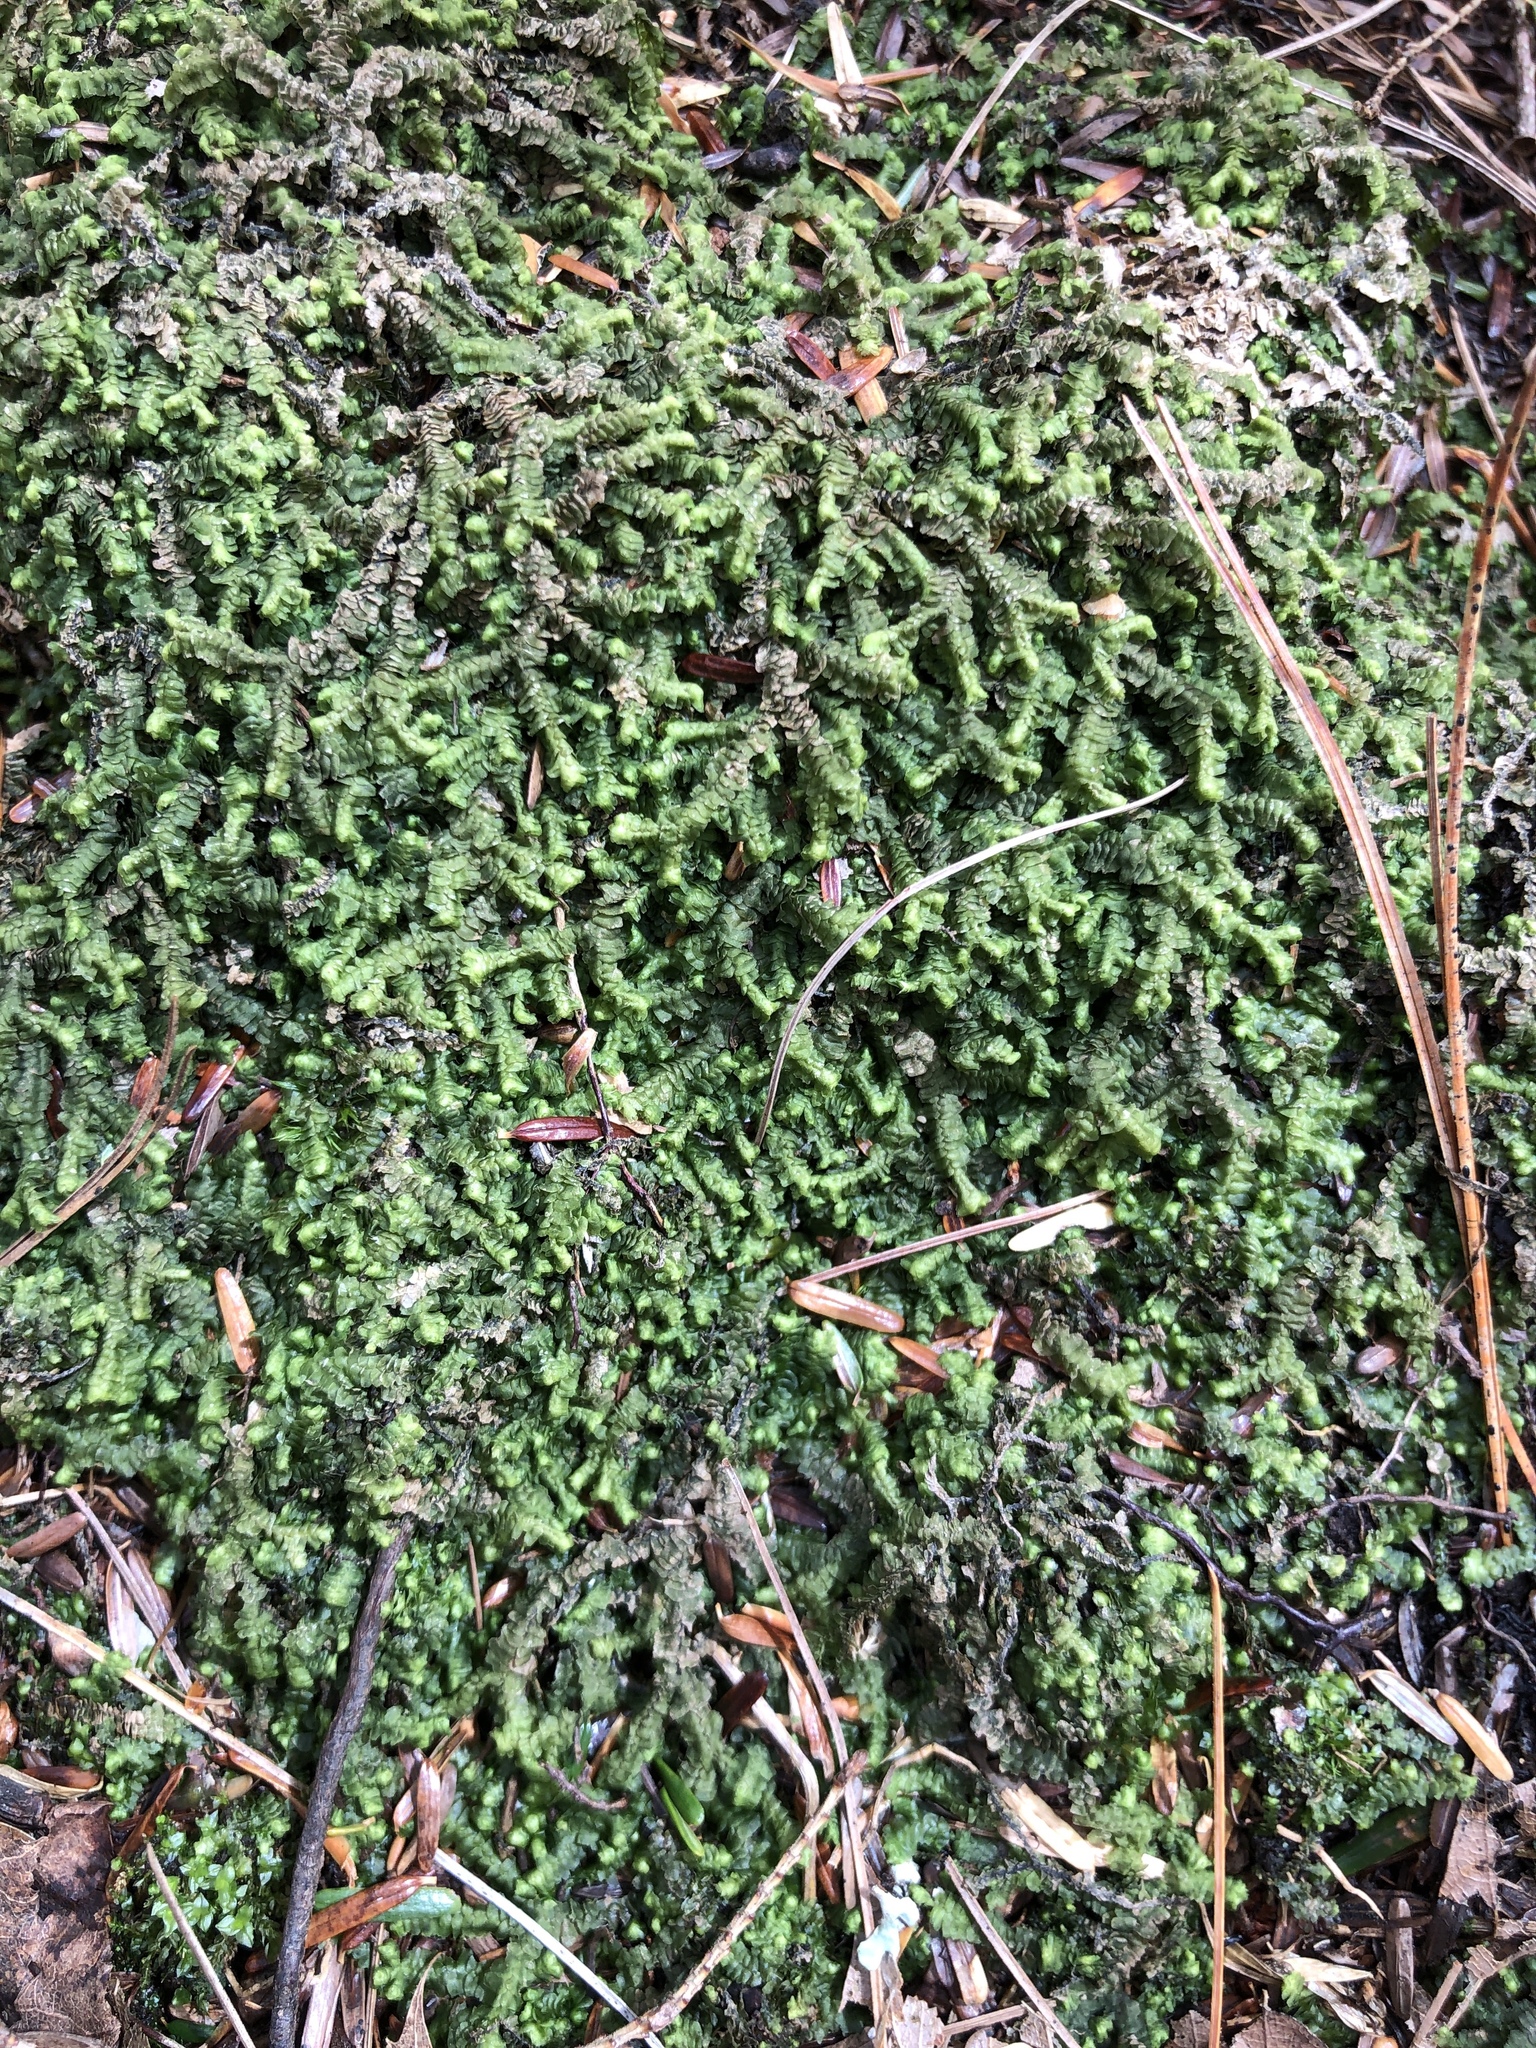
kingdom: Plantae
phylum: Marchantiophyta
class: Jungermanniopsida
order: Jungermanniales
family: Lepidoziaceae
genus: Bazzania
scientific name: Bazzania trilobata
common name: Three-lobed whipwort
